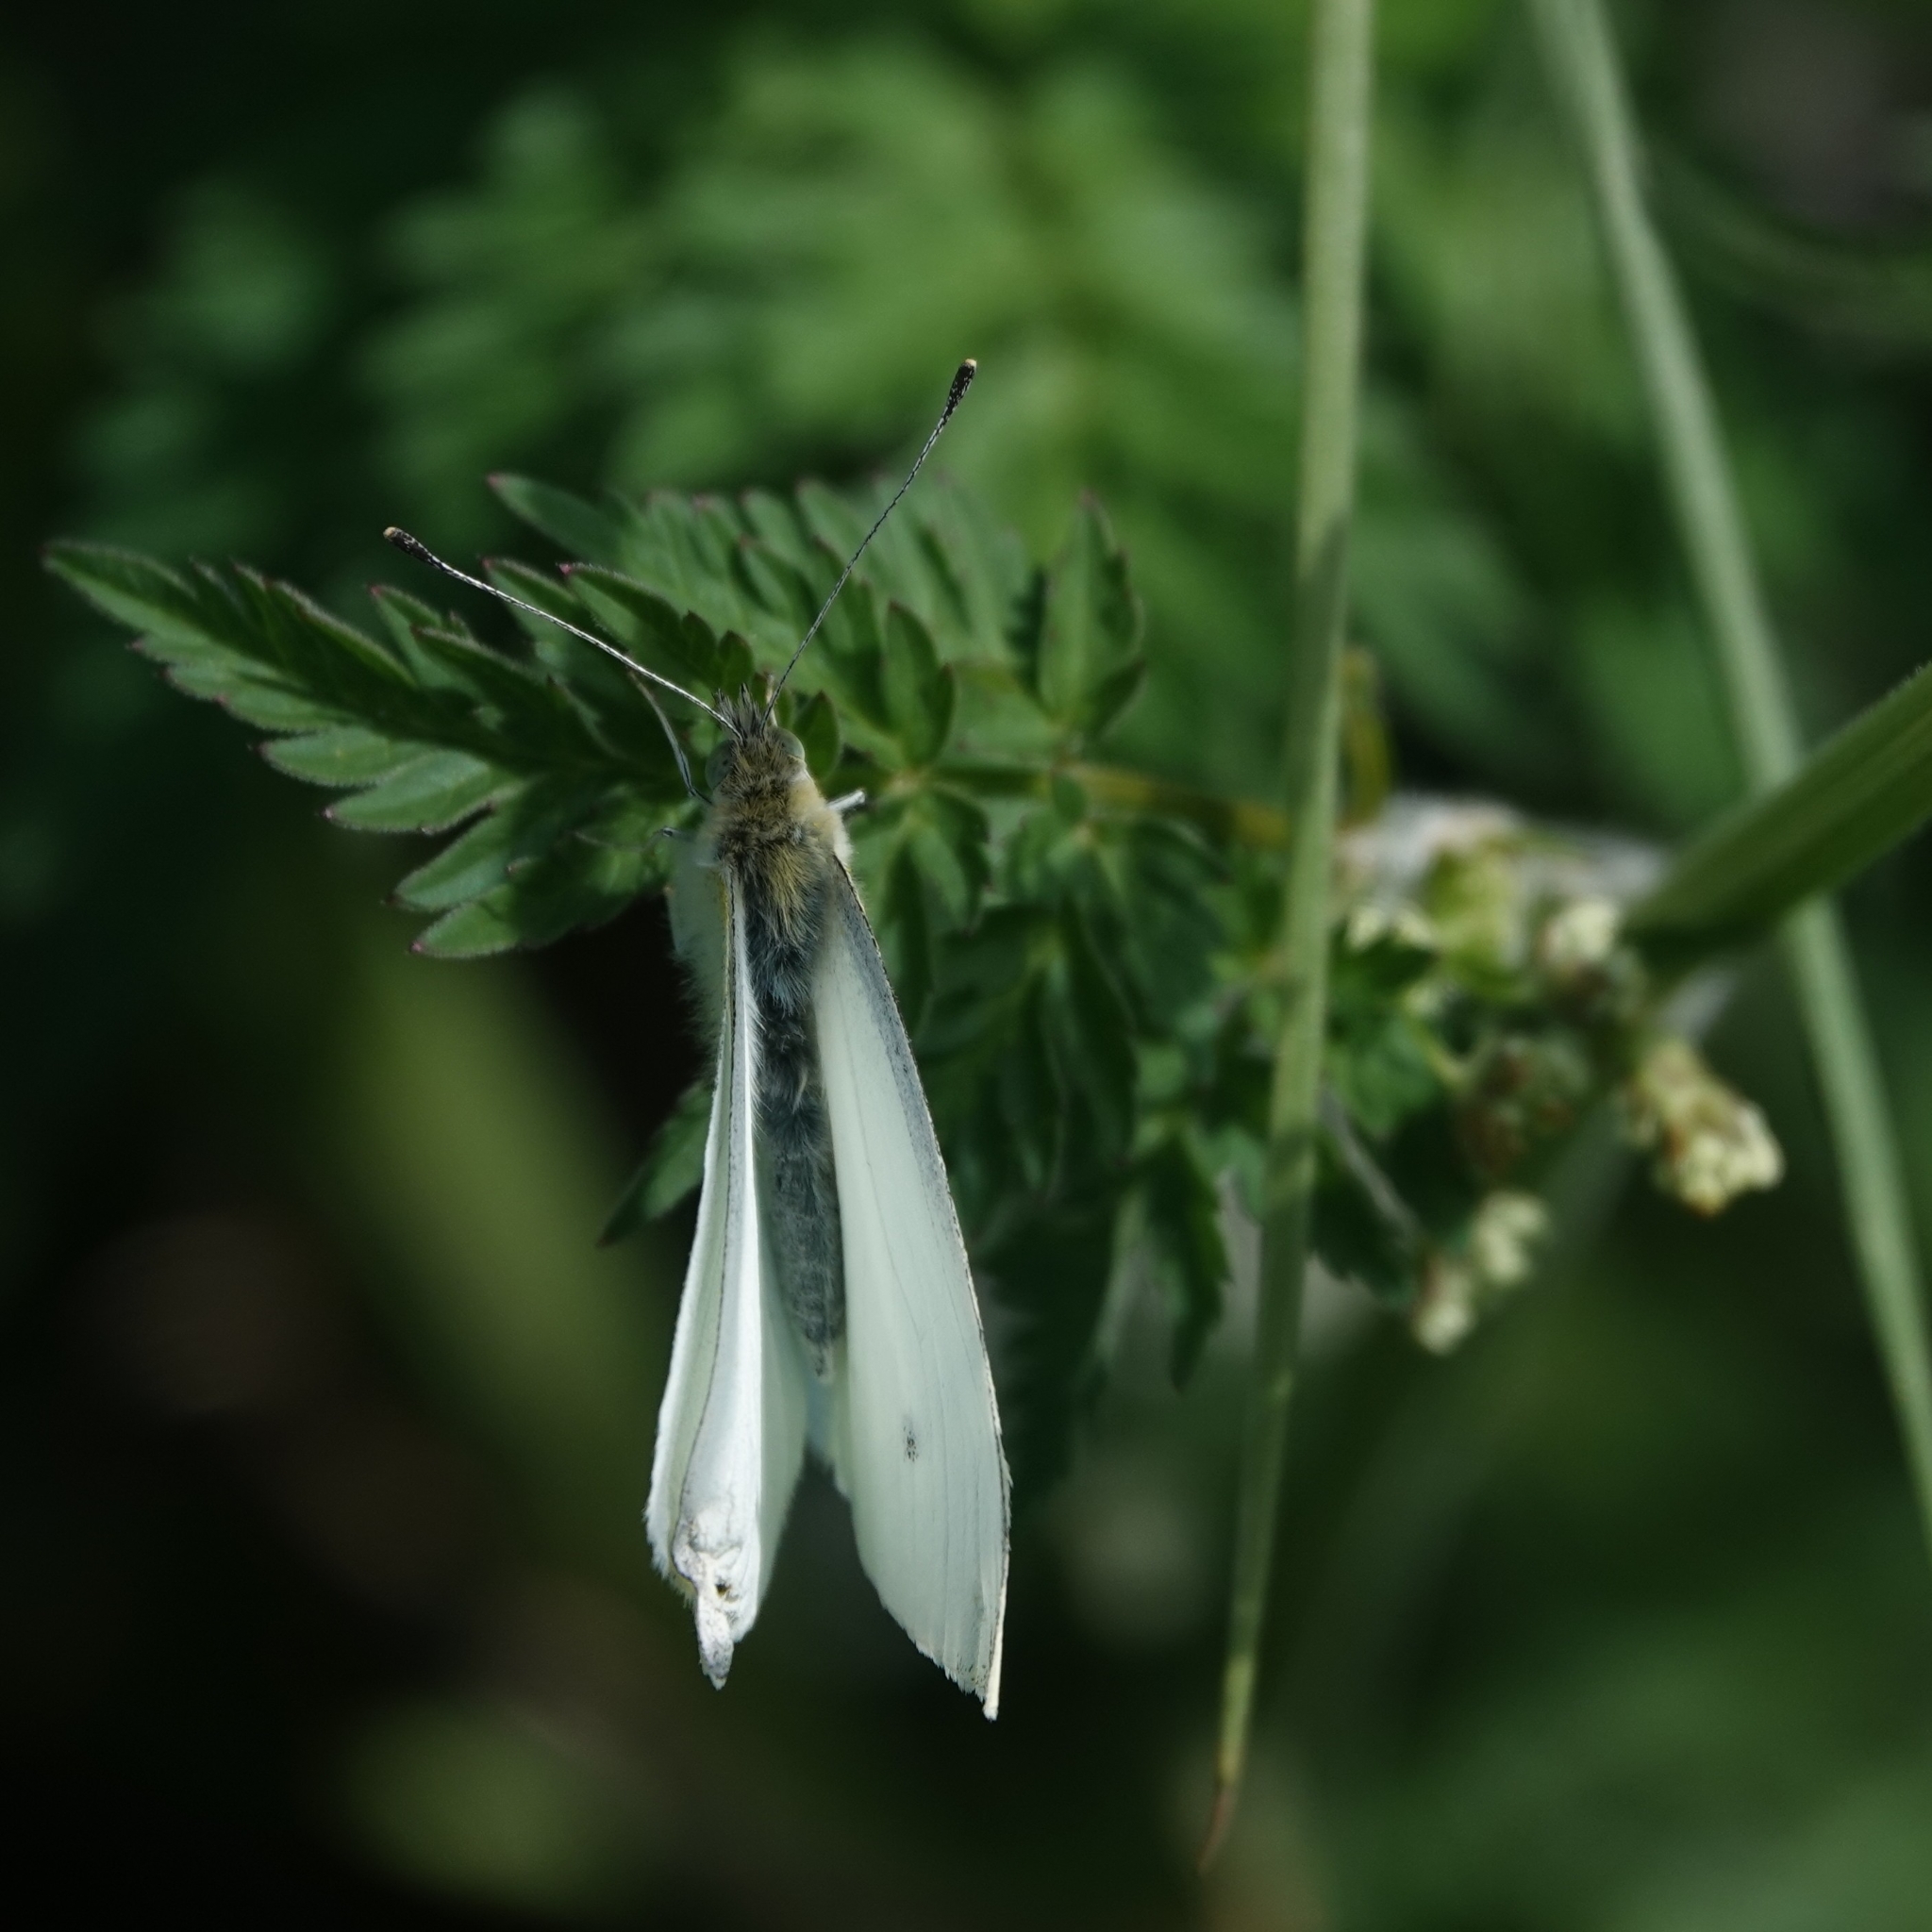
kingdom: Animalia
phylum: Arthropoda
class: Insecta
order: Lepidoptera
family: Pieridae
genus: Pieris
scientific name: Pieris rapae
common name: Small white
